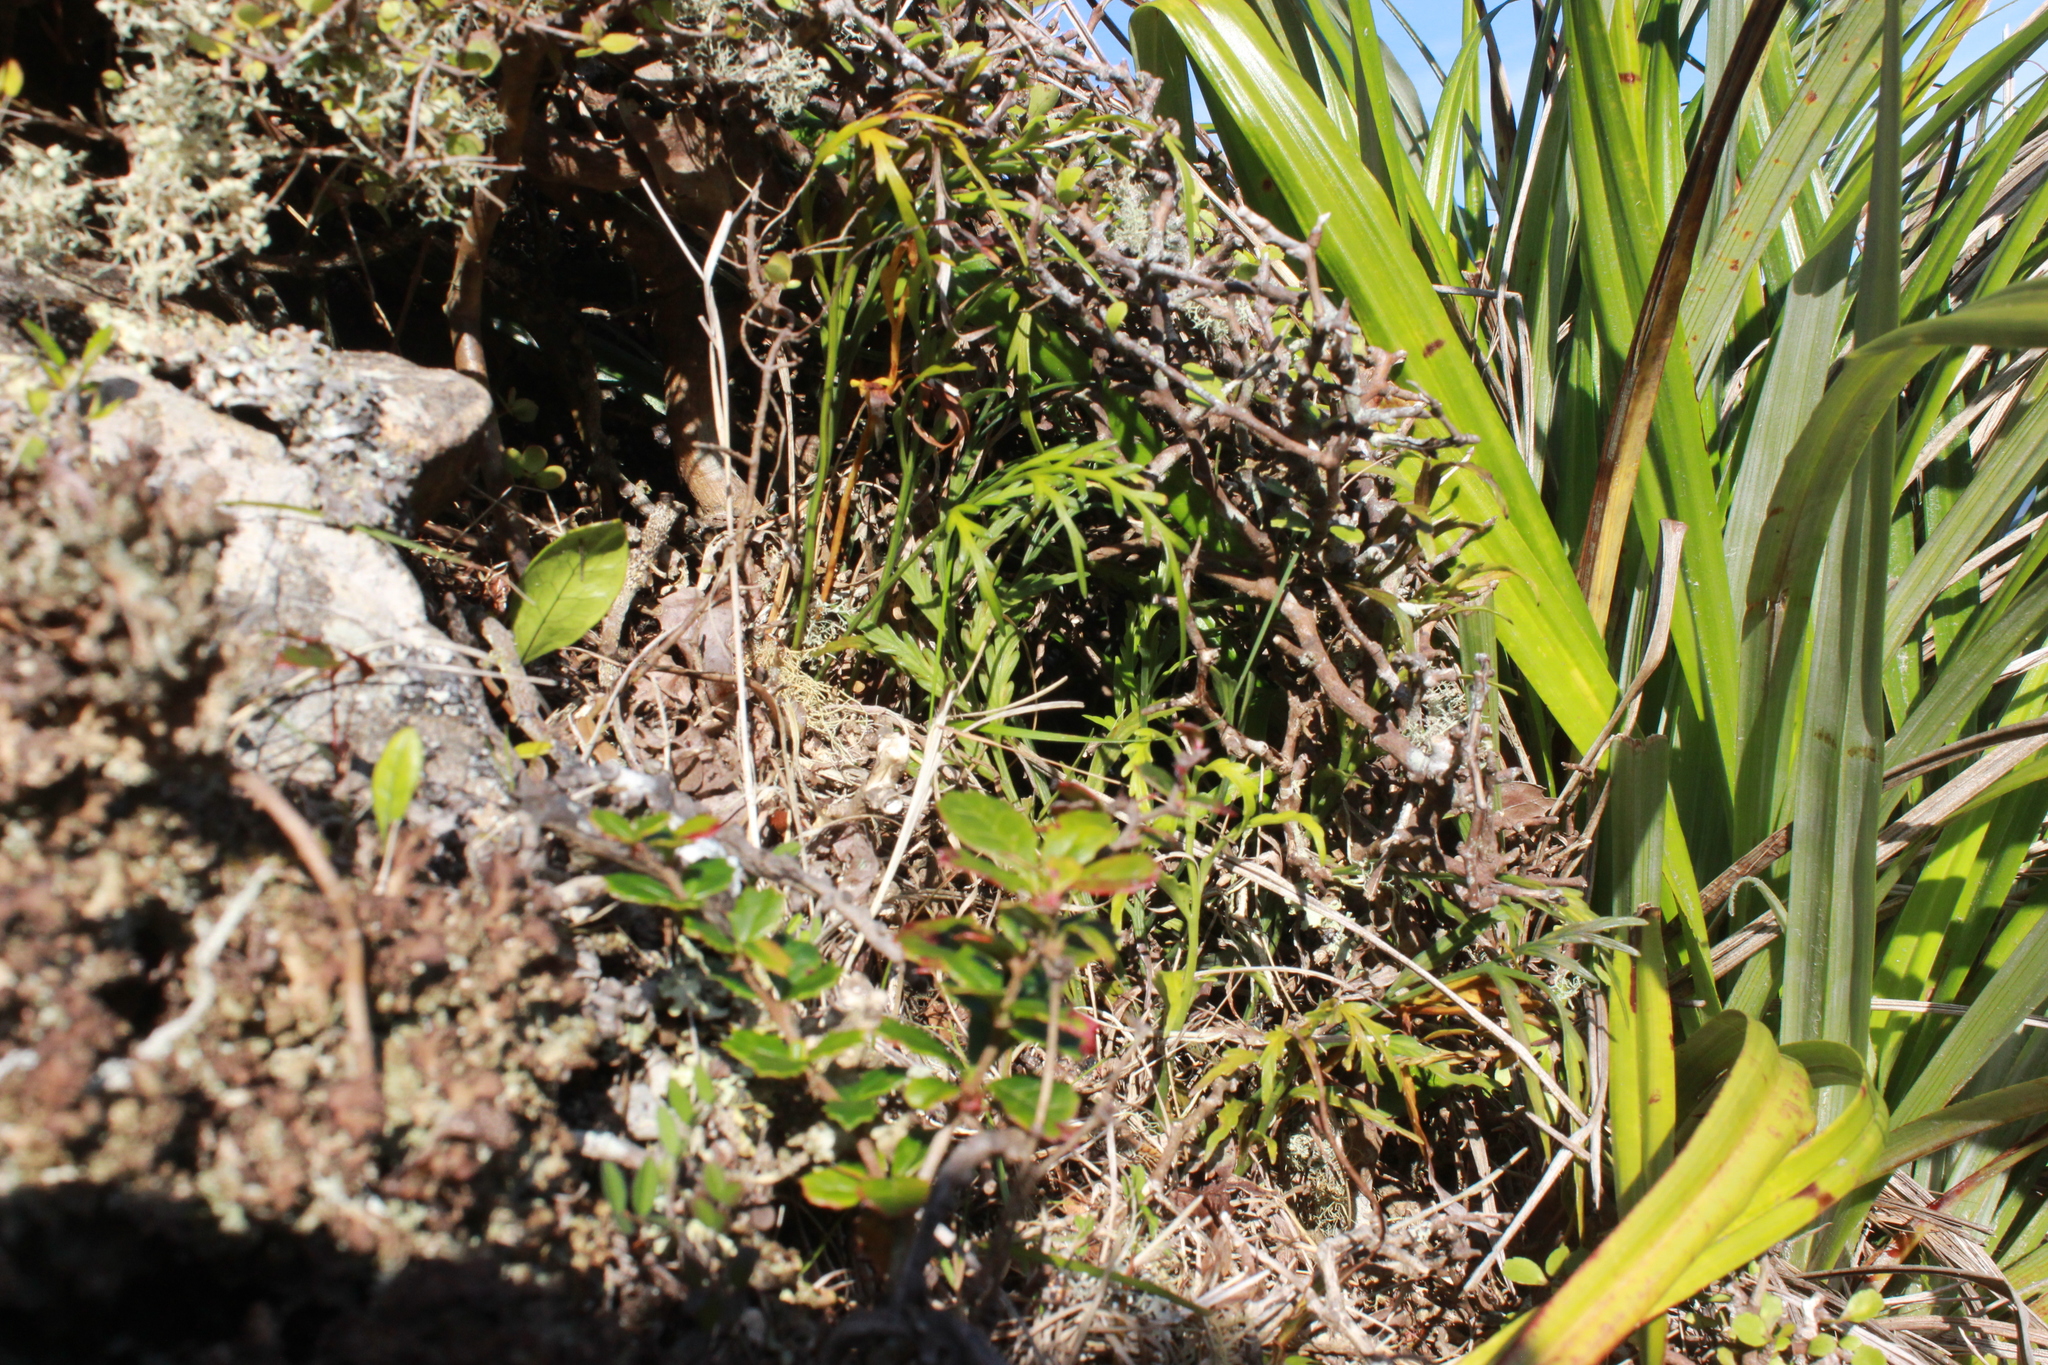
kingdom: Plantae
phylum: Tracheophyta
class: Polypodiopsida
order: Polypodiales
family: Aspleniaceae
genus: Asplenium
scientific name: Asplenium flaccidum
